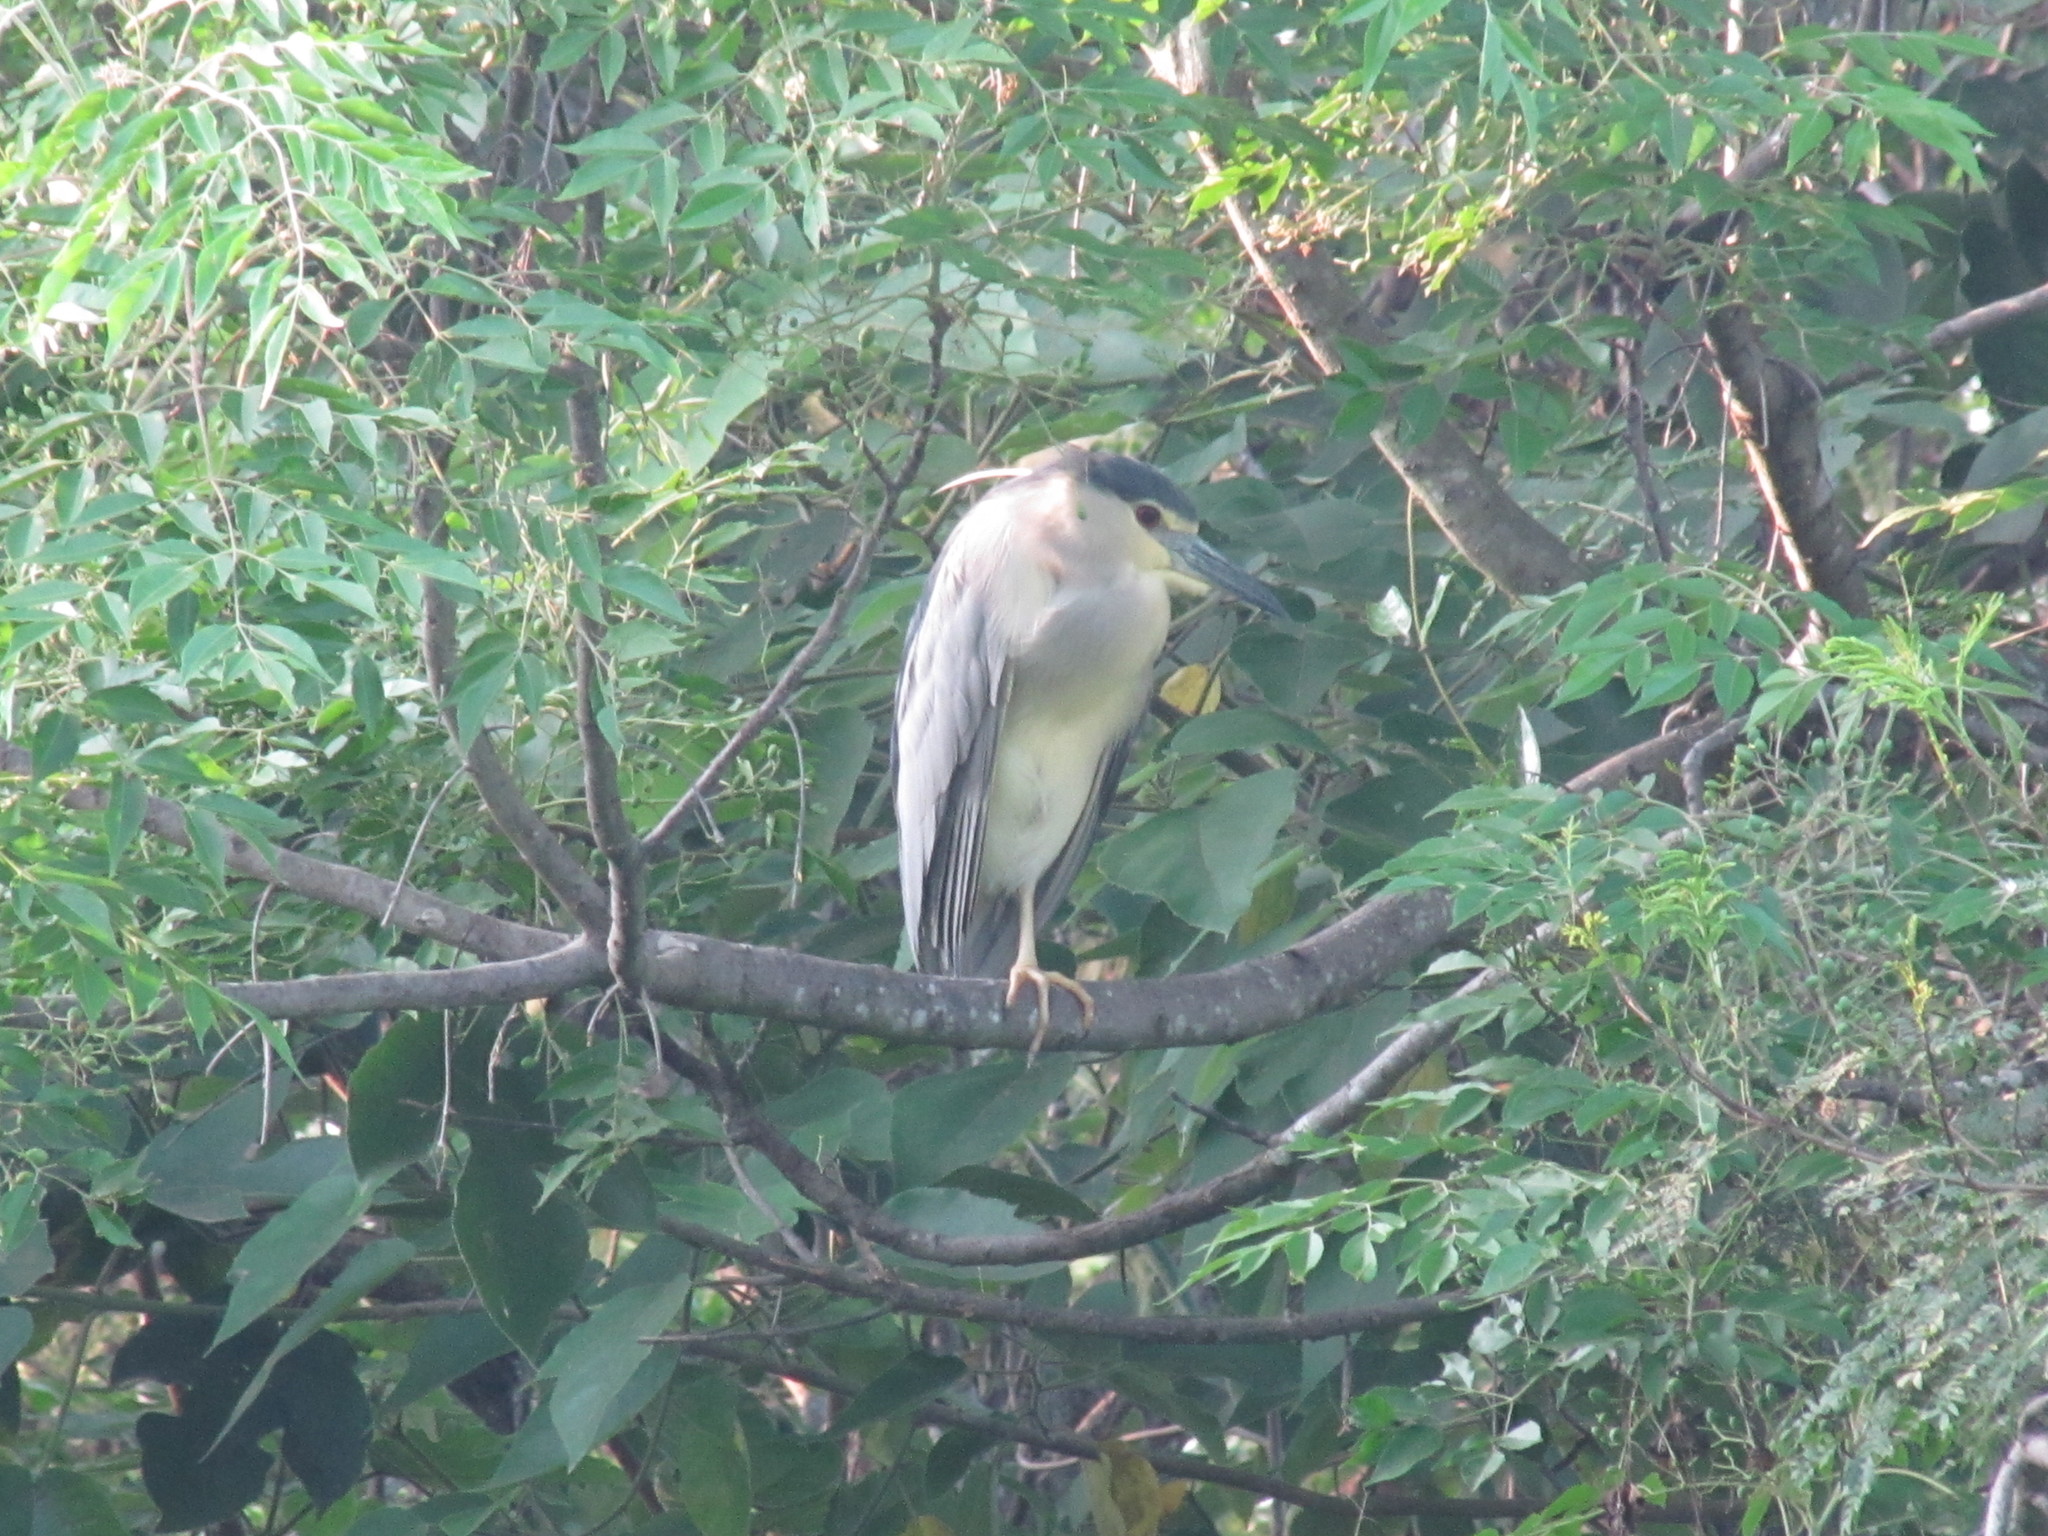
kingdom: Animalia
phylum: Chordata
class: Aves
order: Pelecaniformes
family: Ardeidae
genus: Nycticorax
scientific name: Nycticorax nycticorax
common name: Black-crowned night heron
